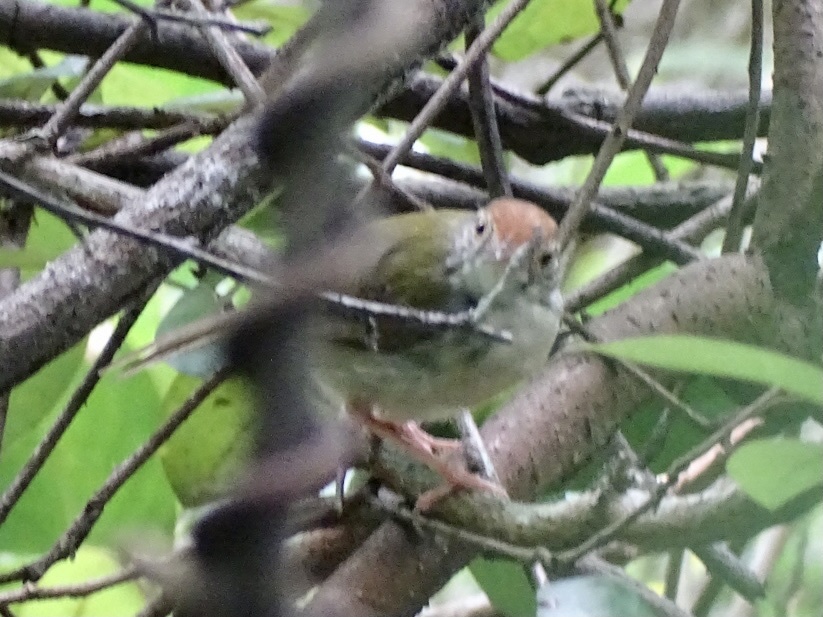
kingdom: Animalia
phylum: Chordata
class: Aves
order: Passeriformes
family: Cisticolidae
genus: Orthotomus
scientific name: Orthotomus sutorius
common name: Common tailorbird
